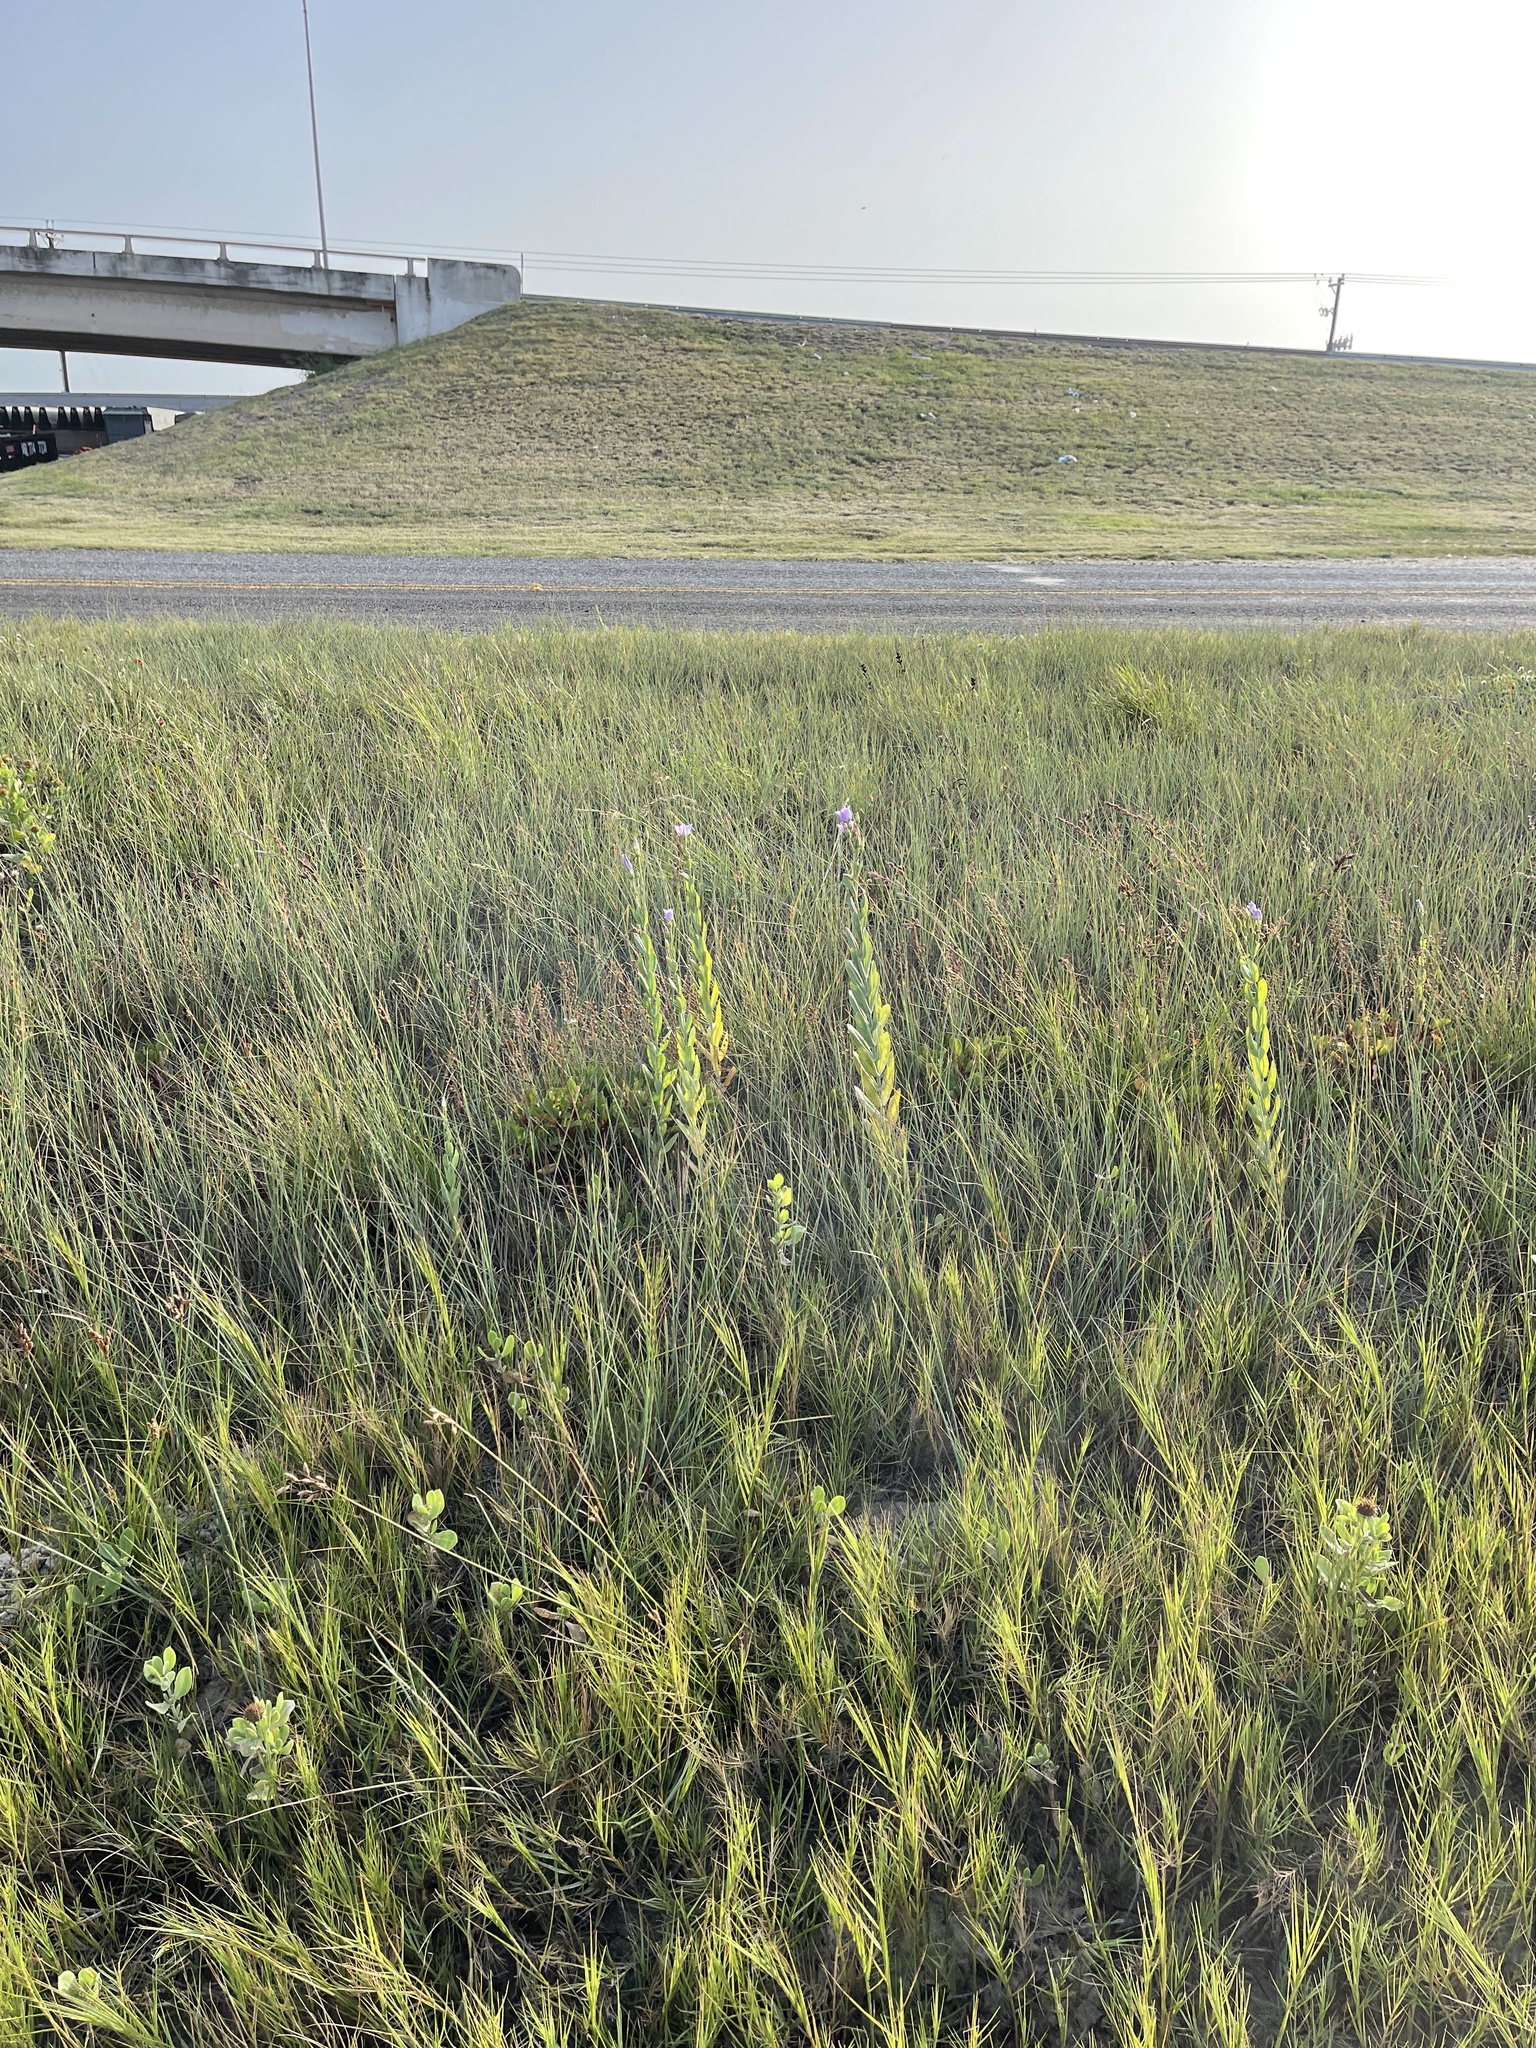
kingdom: Plantae
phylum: Tracheophyta
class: Magnoliopsida
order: Gentianales
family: Gentianaceae
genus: Eustoma
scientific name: Eustoma exaltatum
